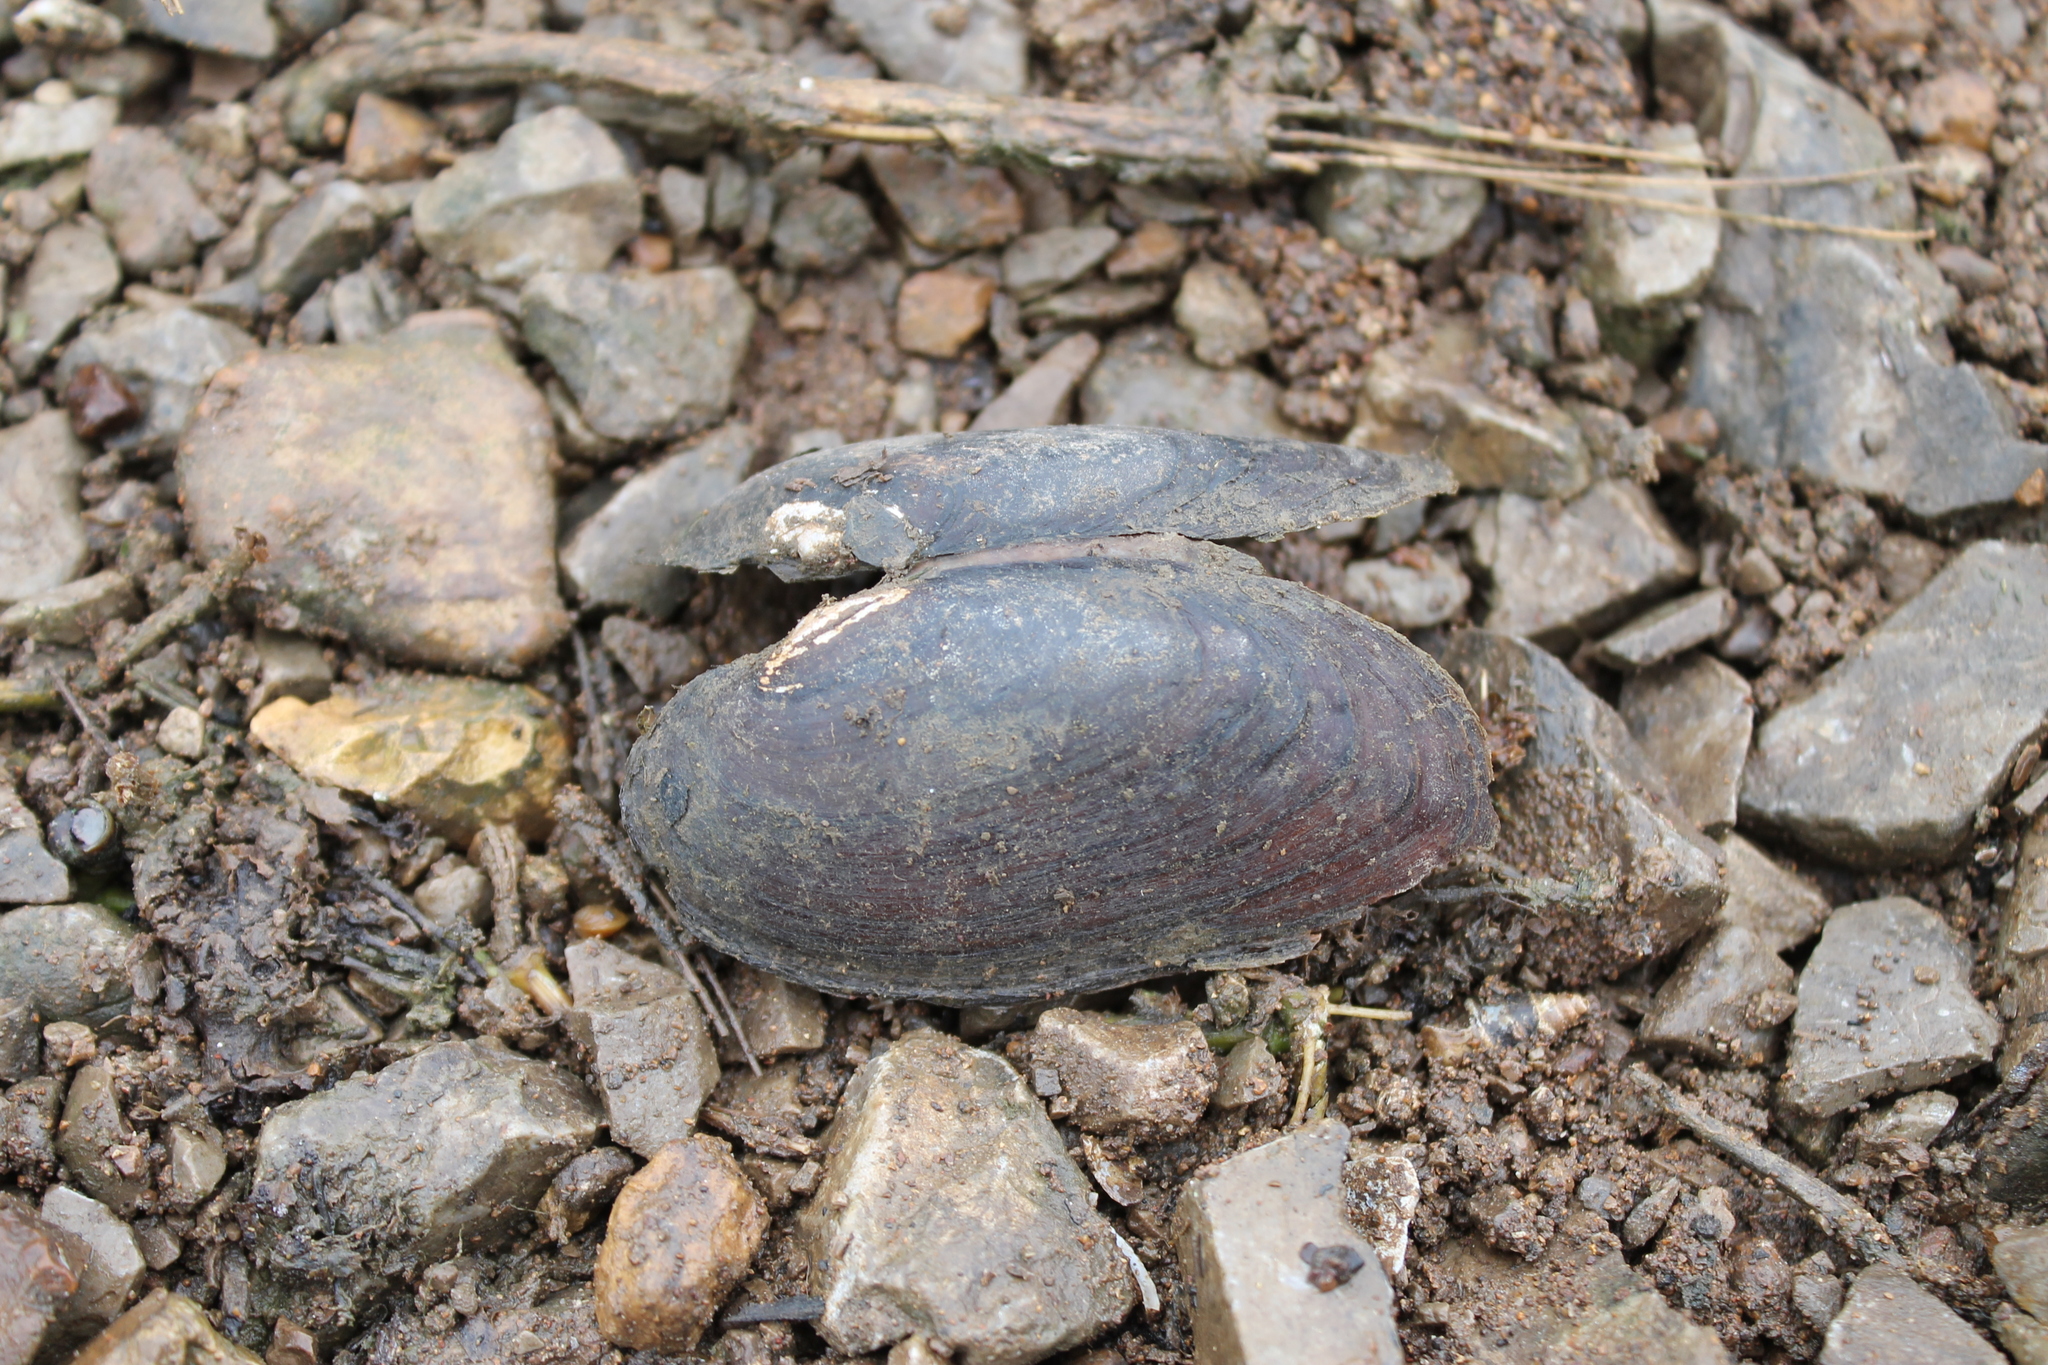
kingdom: Animalia
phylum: Mollusca
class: Bivalvia
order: Unionida
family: Unionidae
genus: Eurynia
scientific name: Eurynia dilatata
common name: Spike
